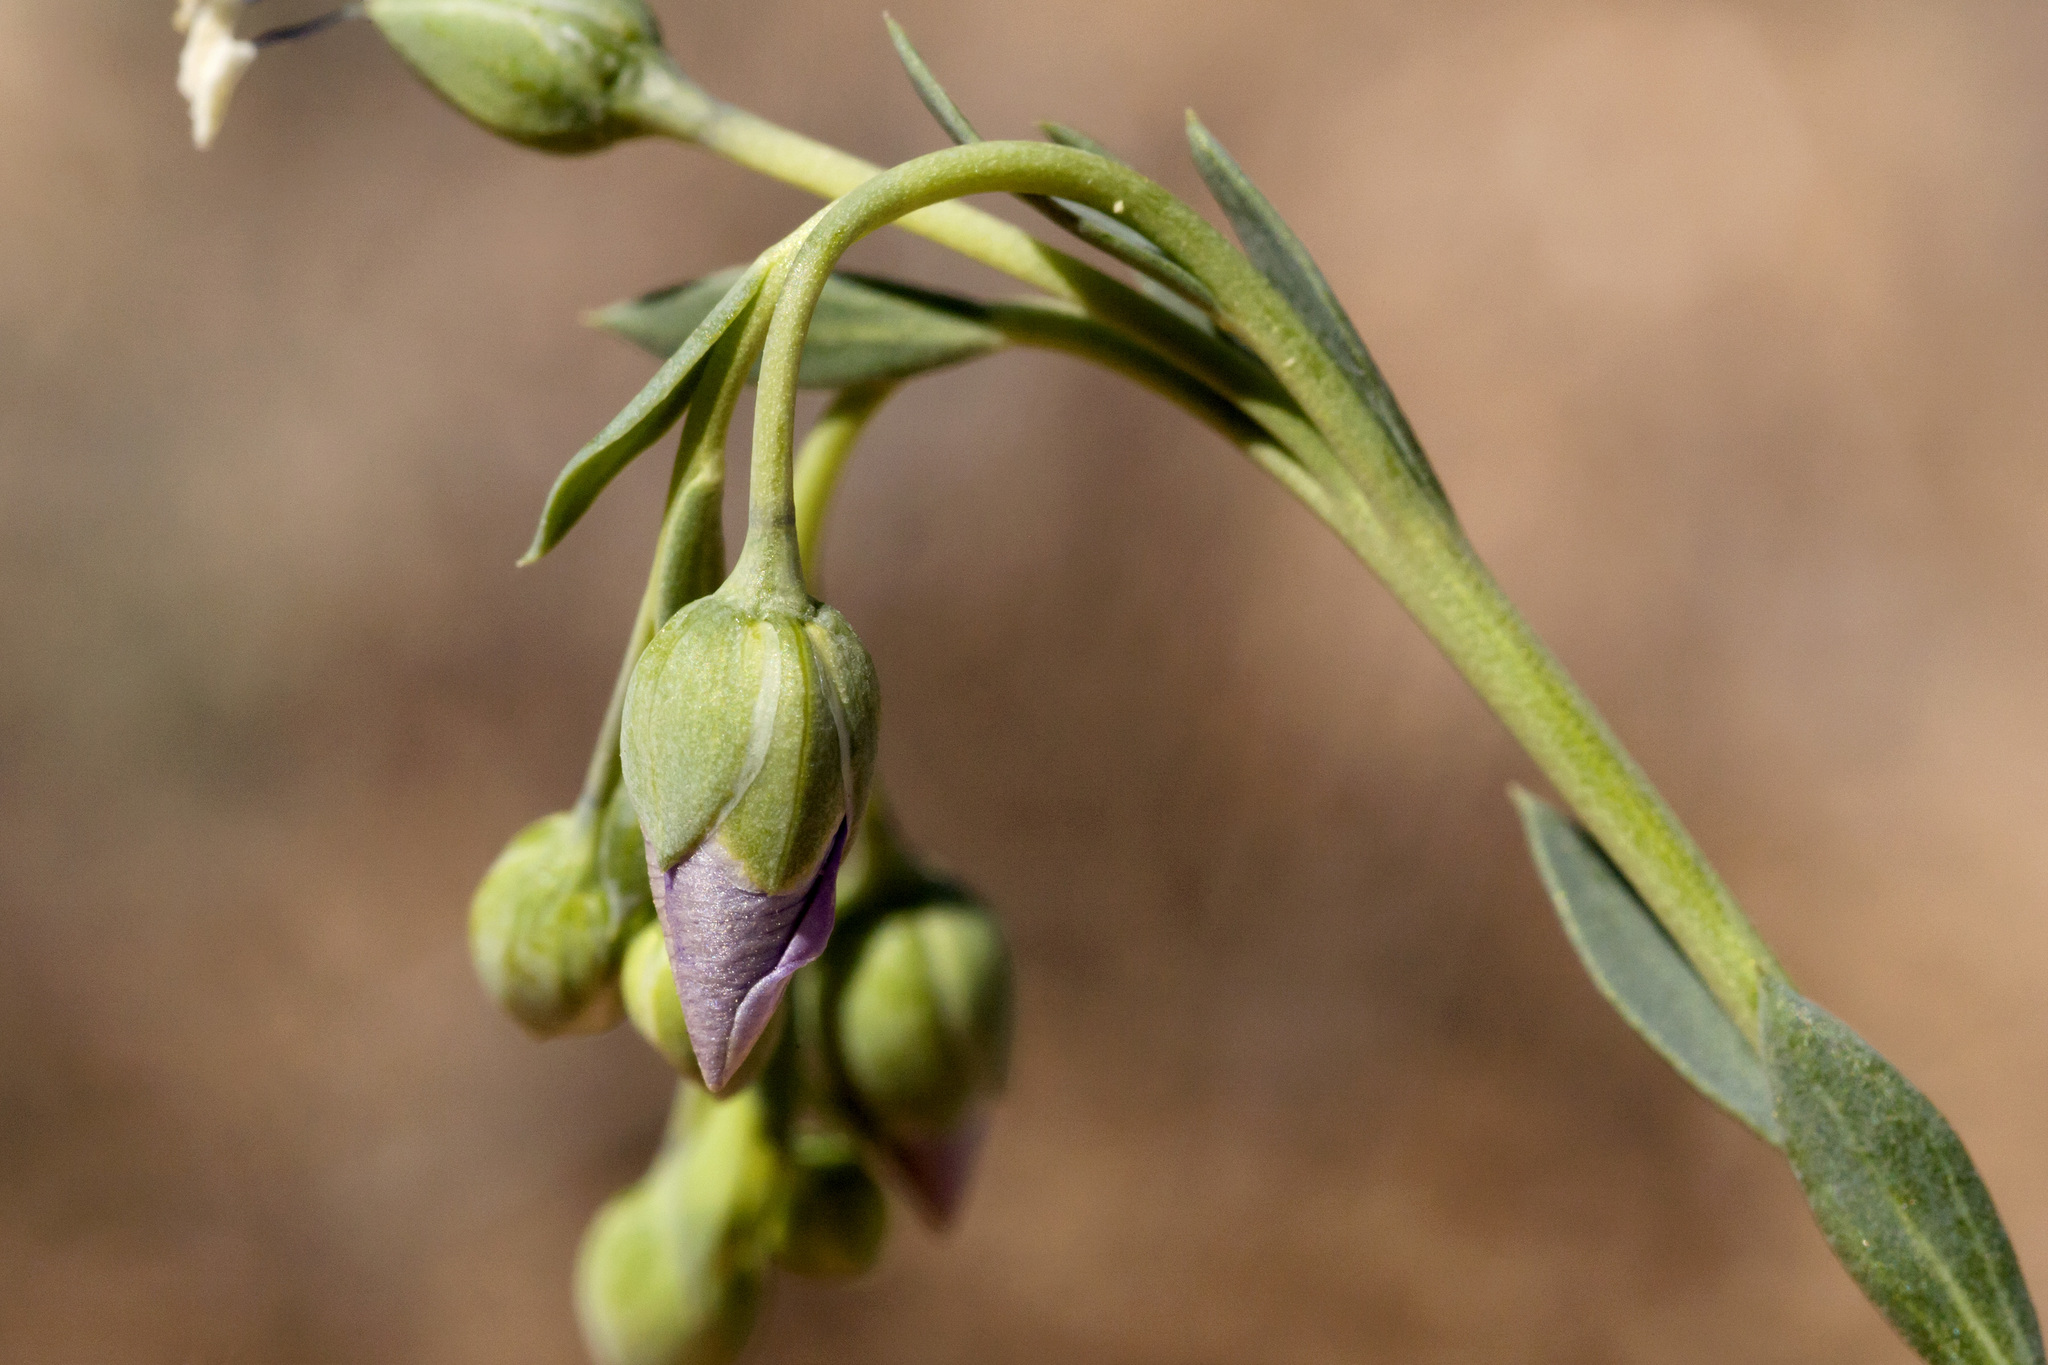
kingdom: Plantae
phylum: Tracheophyta
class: Magnoliopsida
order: Malpighiales
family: Linaceae
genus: Linum
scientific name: Linum pratense
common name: Norton's flax
